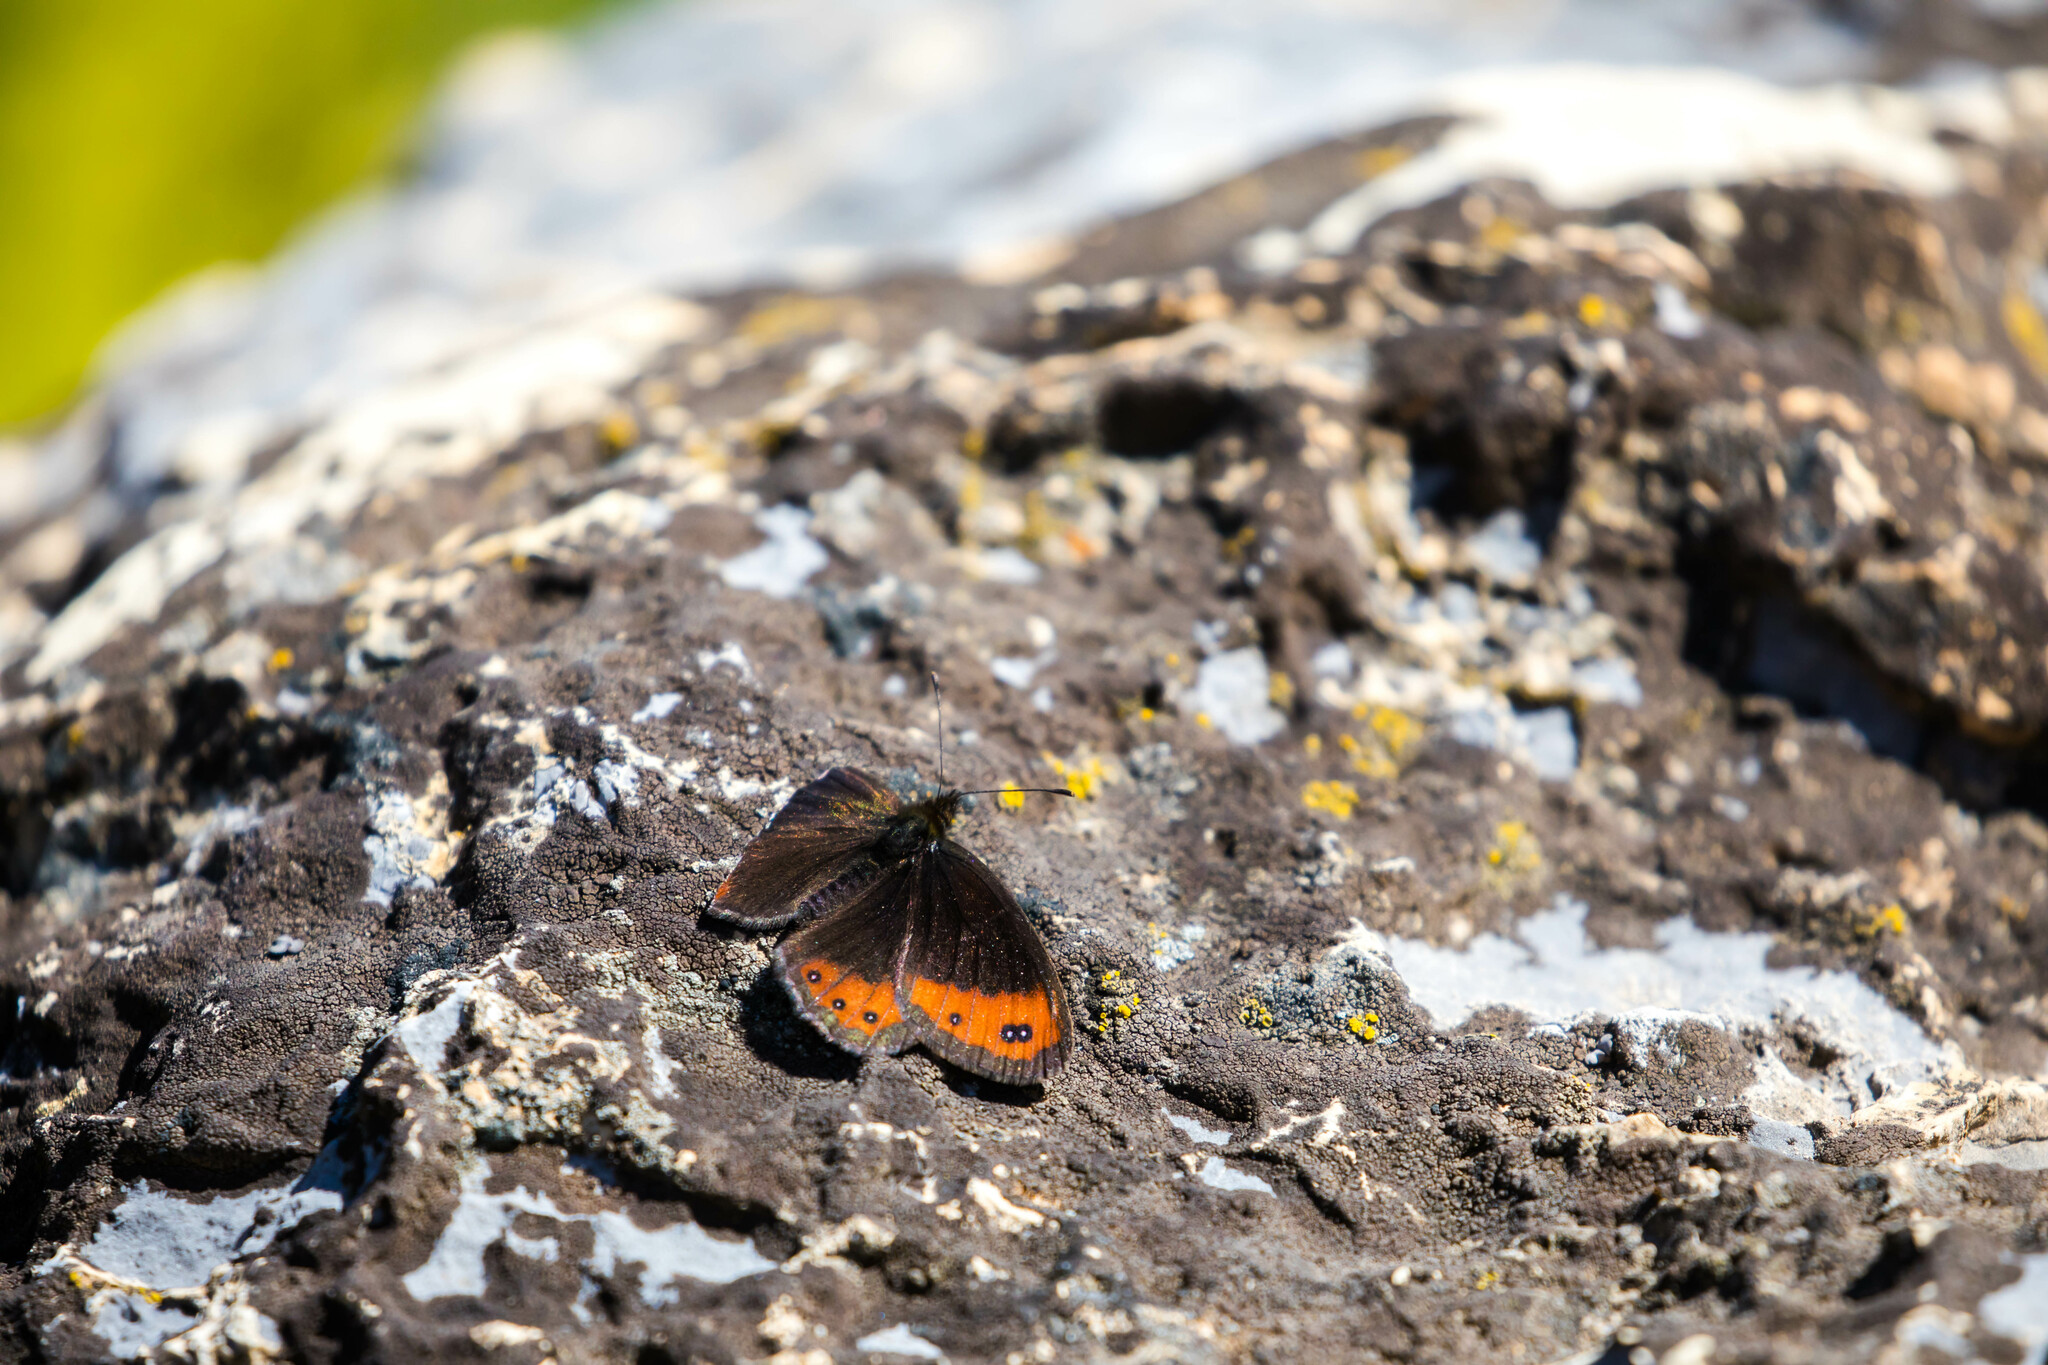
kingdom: Animalia
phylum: Arthropoda
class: Insecta
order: Lepidoptera
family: Nymphalidae
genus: Erebia
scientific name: Erebia montanus
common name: Marbled ringlet
